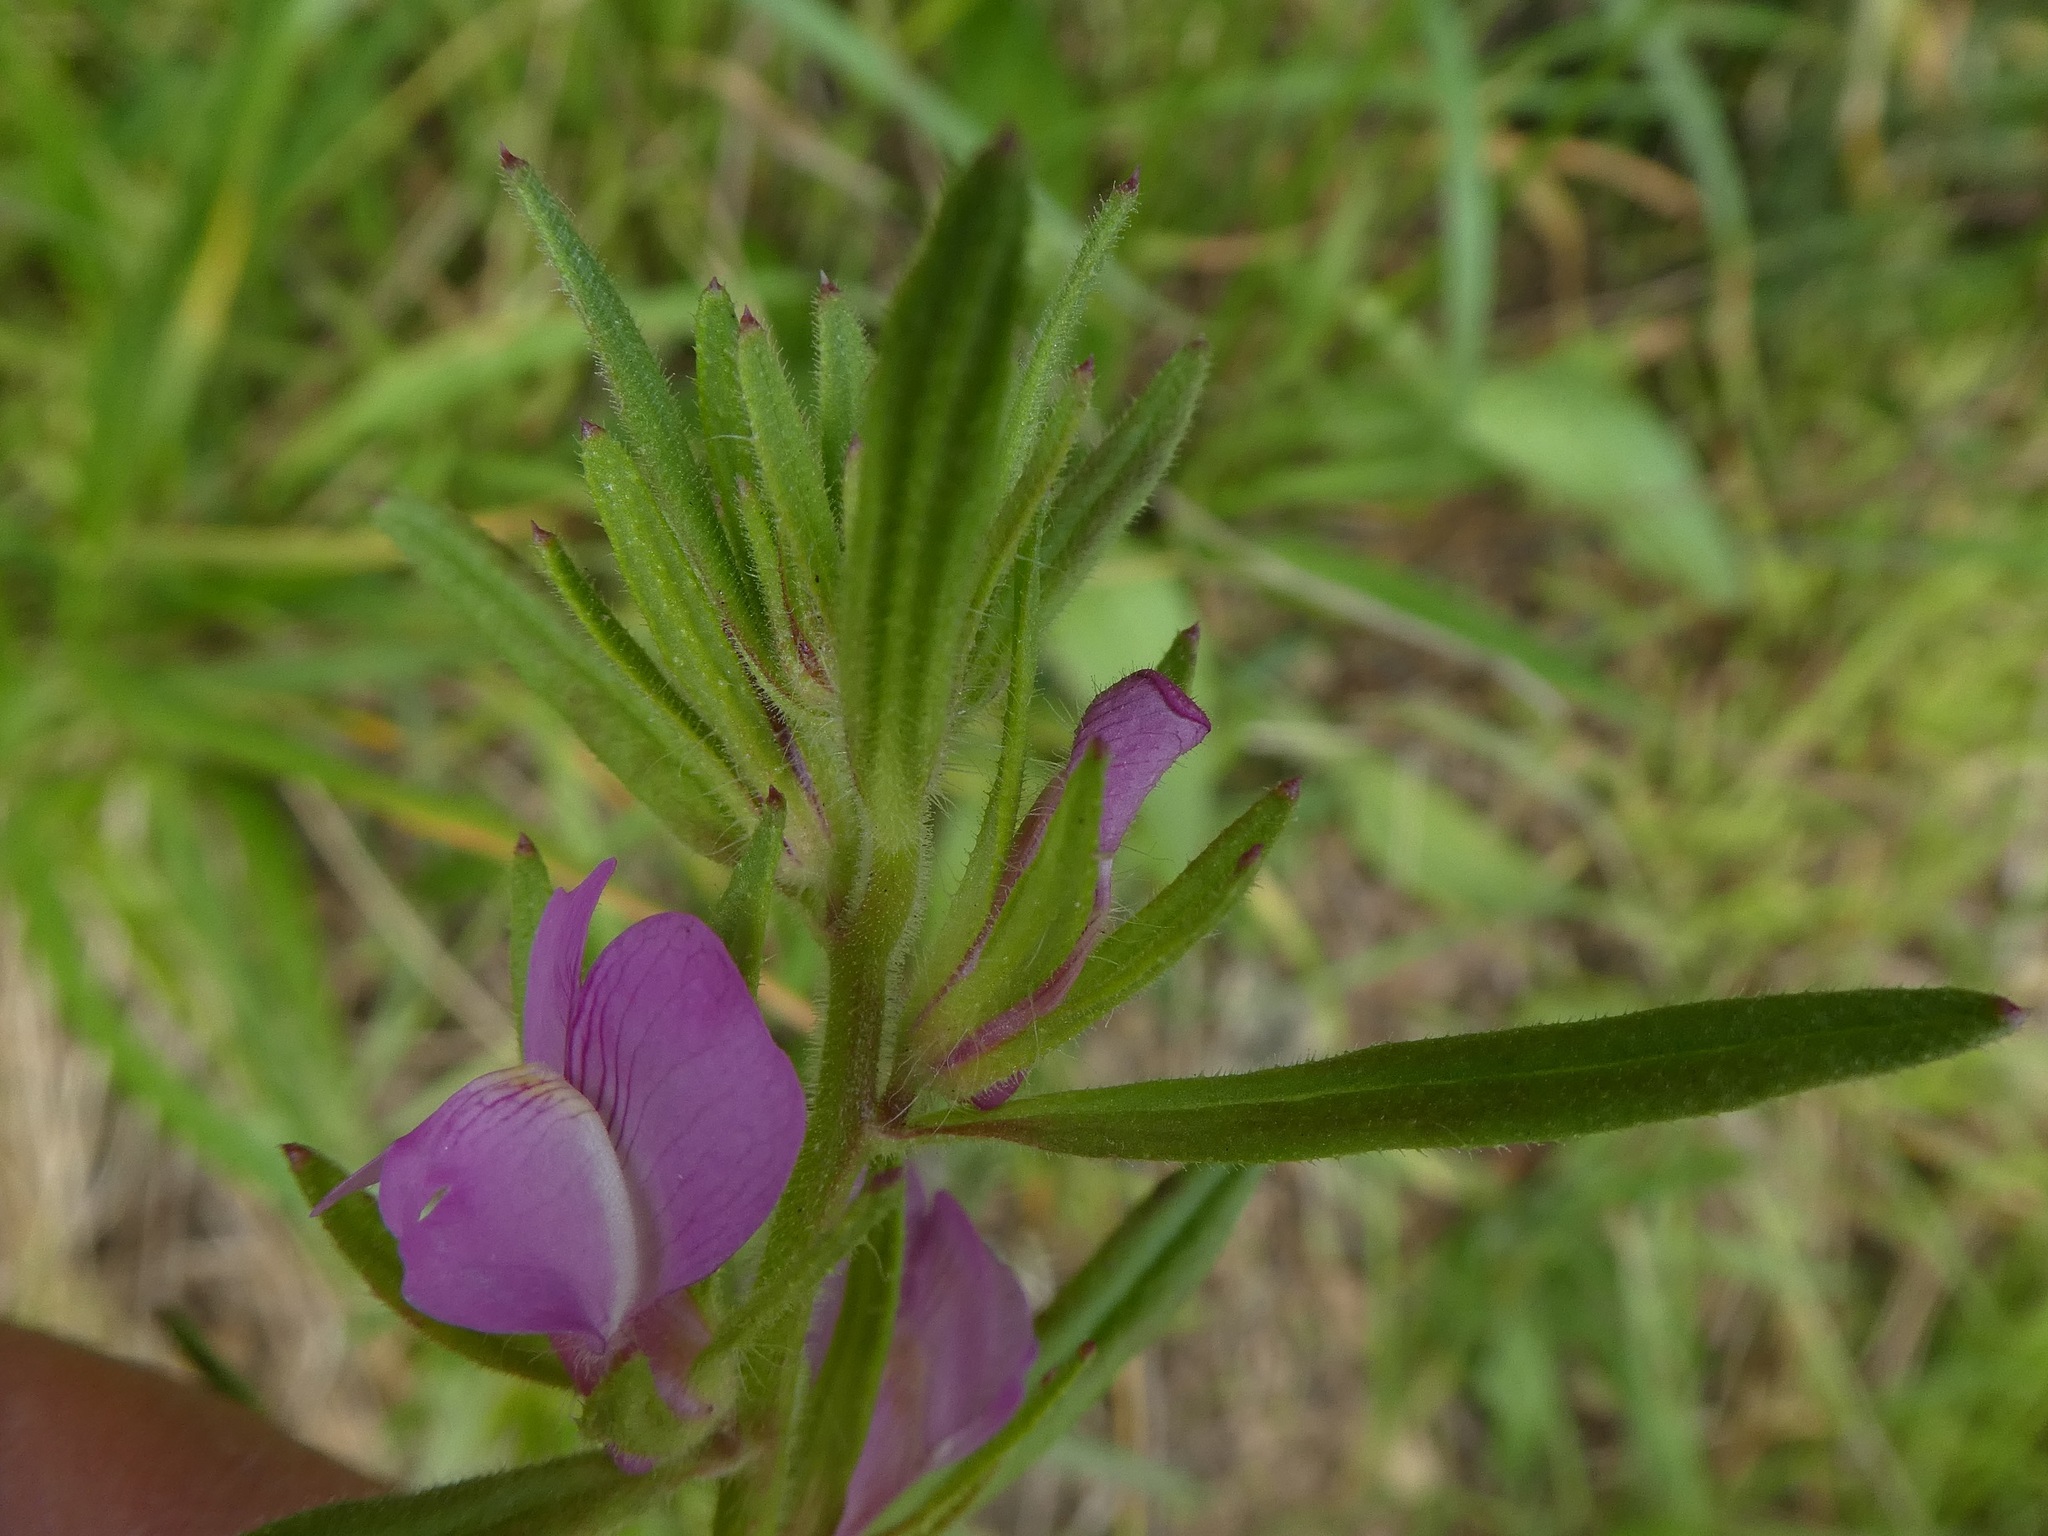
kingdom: Plantae
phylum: Tracheophyta
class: Magnoliopsida
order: Lamiales
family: Plantaginaceae
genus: Misopates
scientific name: Misopates orontium
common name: Weasel's-snout
